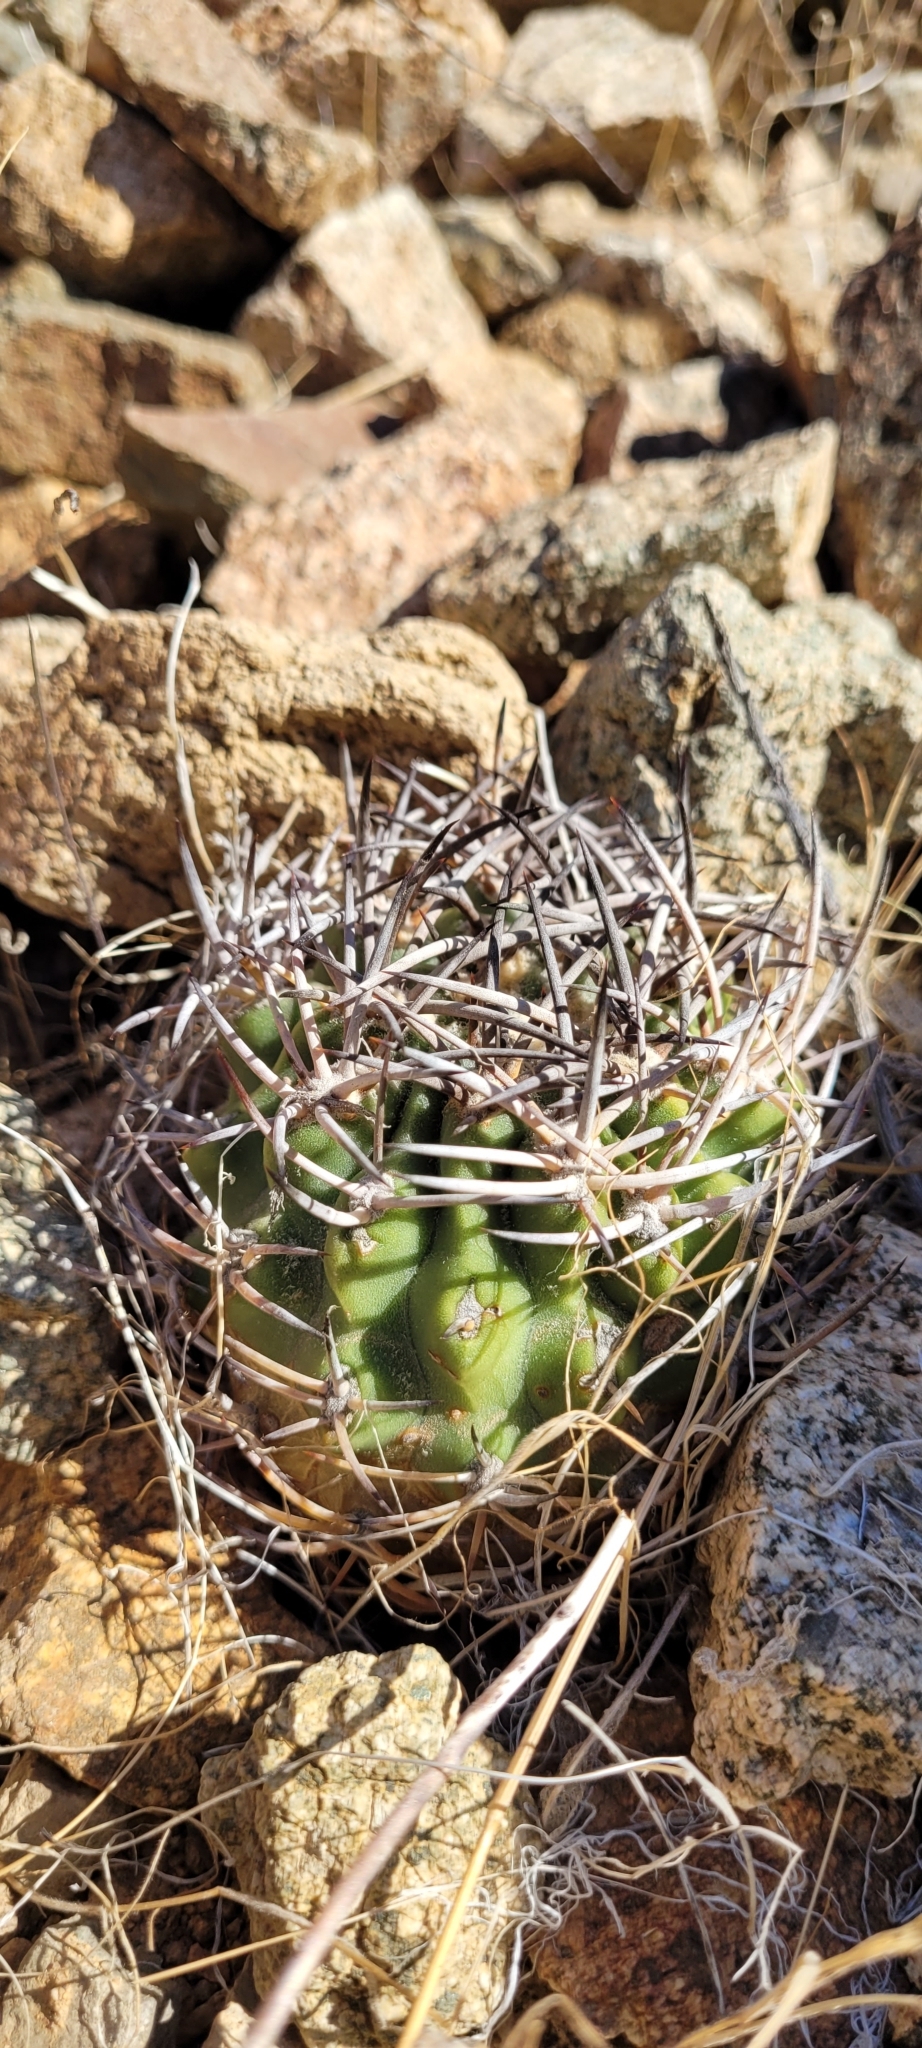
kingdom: Plantae
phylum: Tracheophyta
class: Magnoliopsida
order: Caryophyllales
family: Cactaceae
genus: Eriosyce
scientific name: Eriosyce clavata
